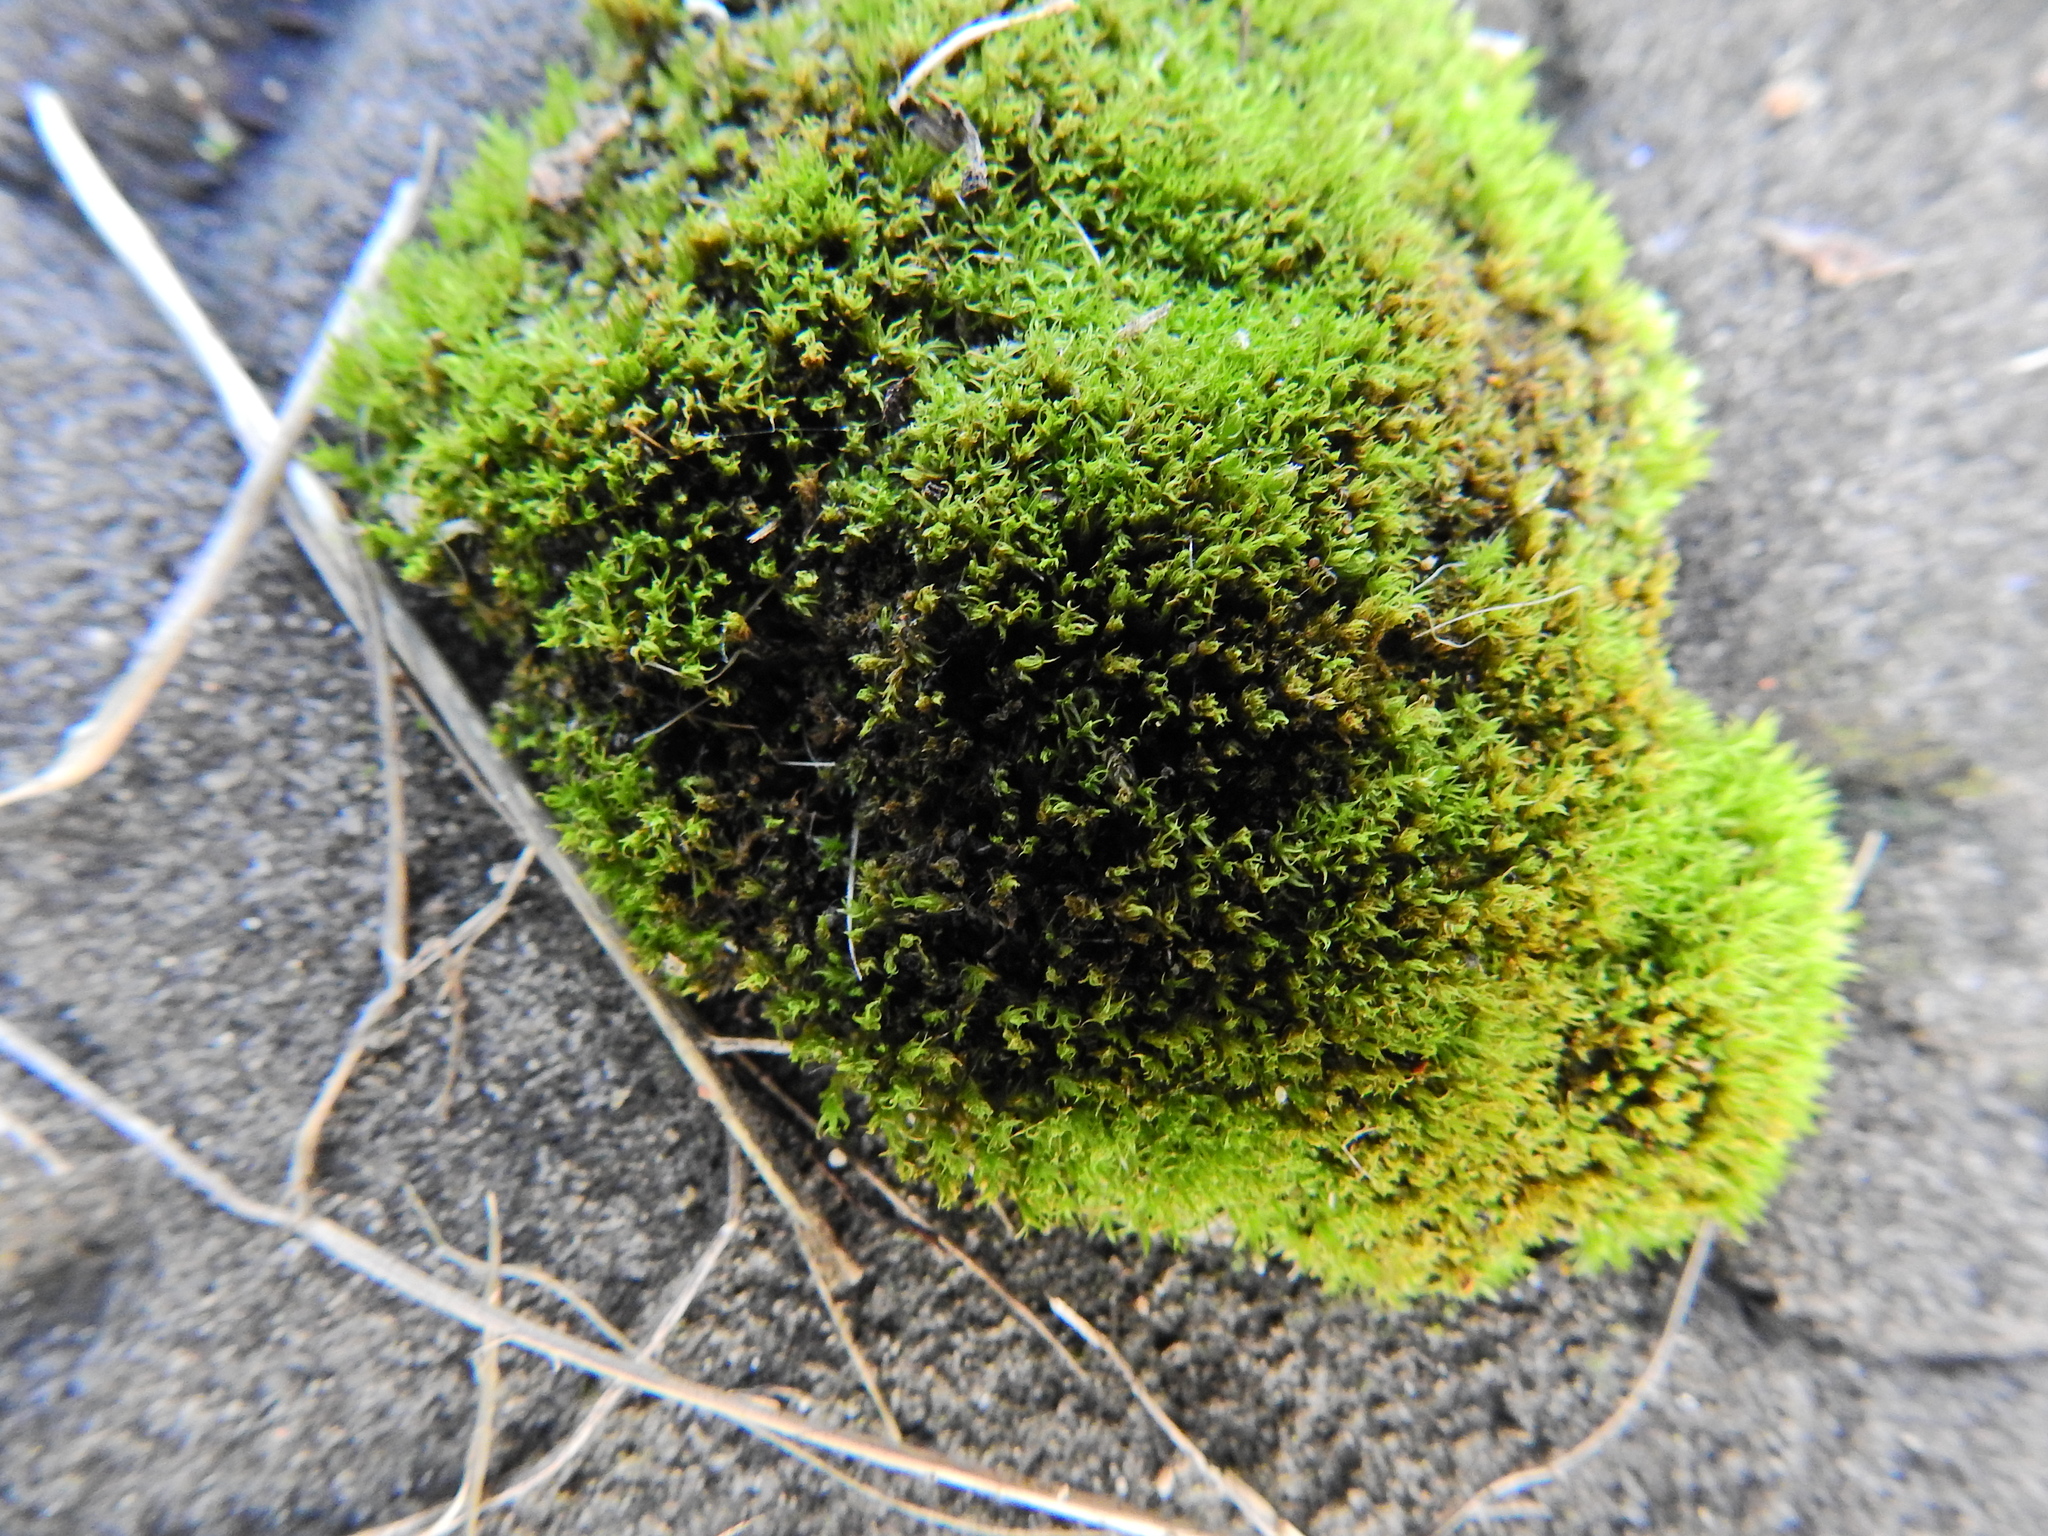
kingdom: Plantae
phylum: Bryophyta
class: Bryopsida
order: Dicranales
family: Ditrichaceae
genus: Ceratodon
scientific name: Ceratodon purpureus
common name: Redshank
